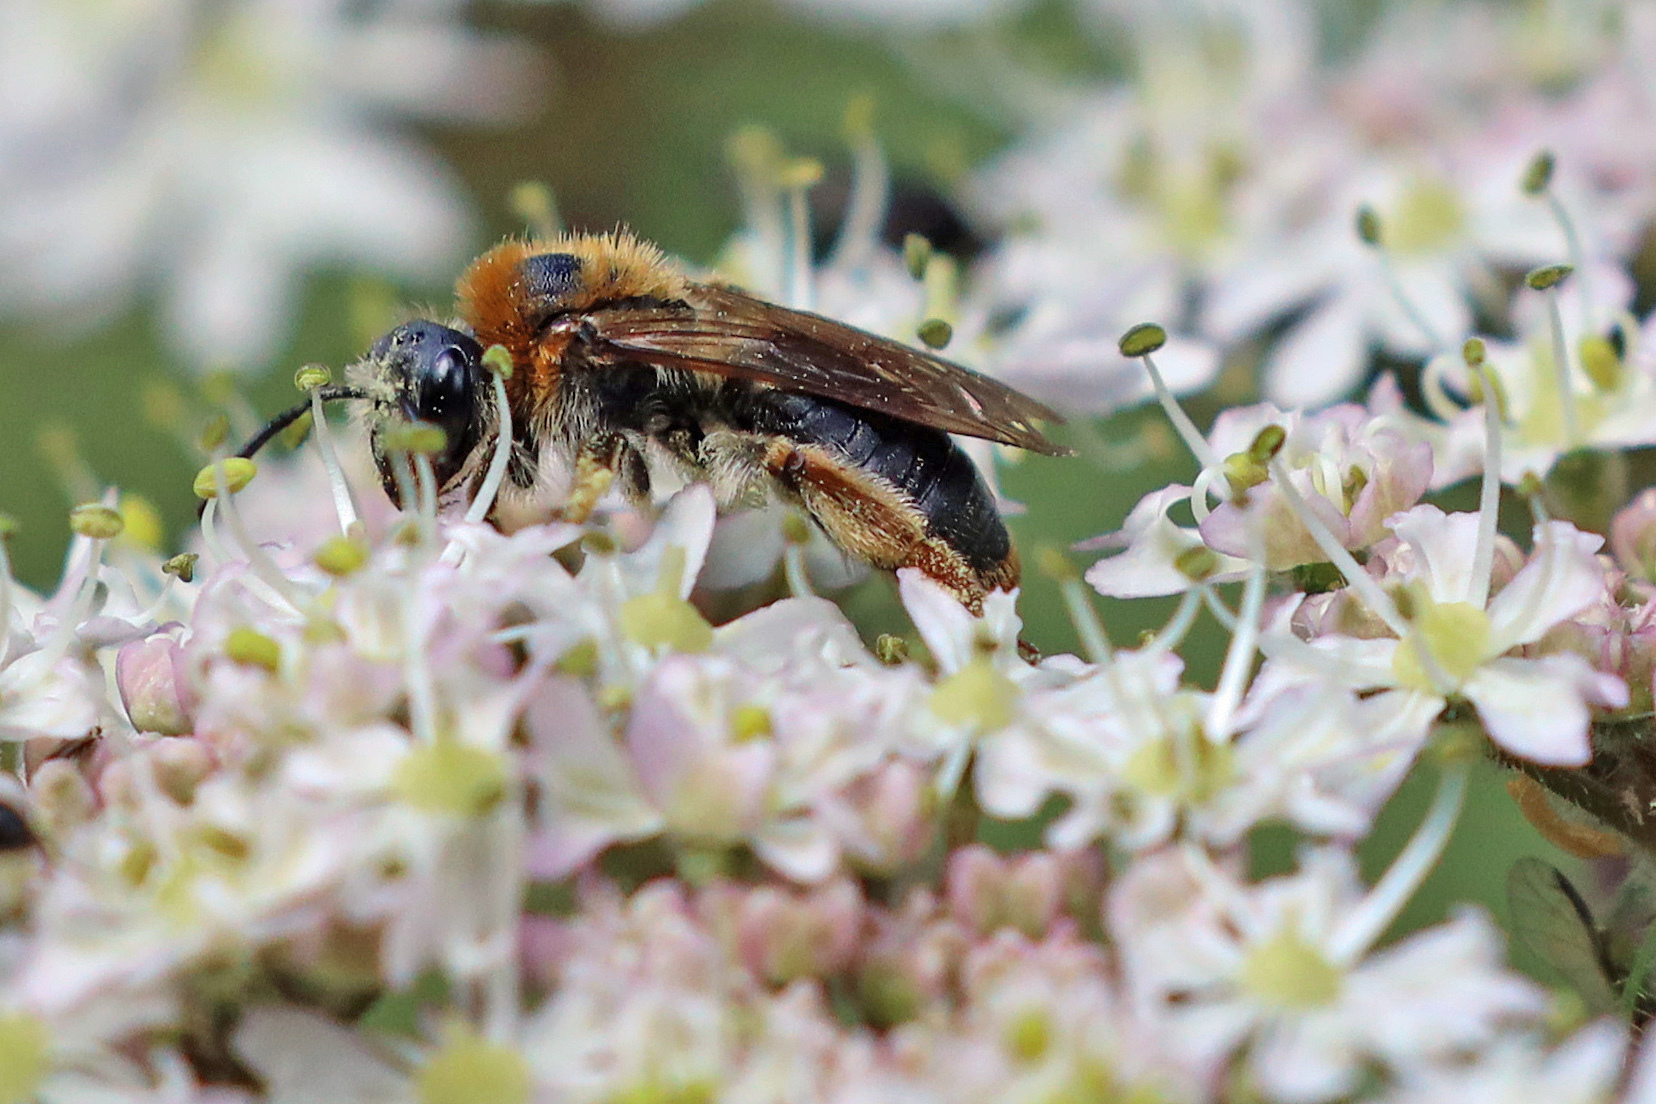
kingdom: Animalia
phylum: Arthropoda
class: Insecta
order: Hymenoptera
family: Andrenidae
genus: Andrena
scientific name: Andrena haemorrhoa
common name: Early mining bee
